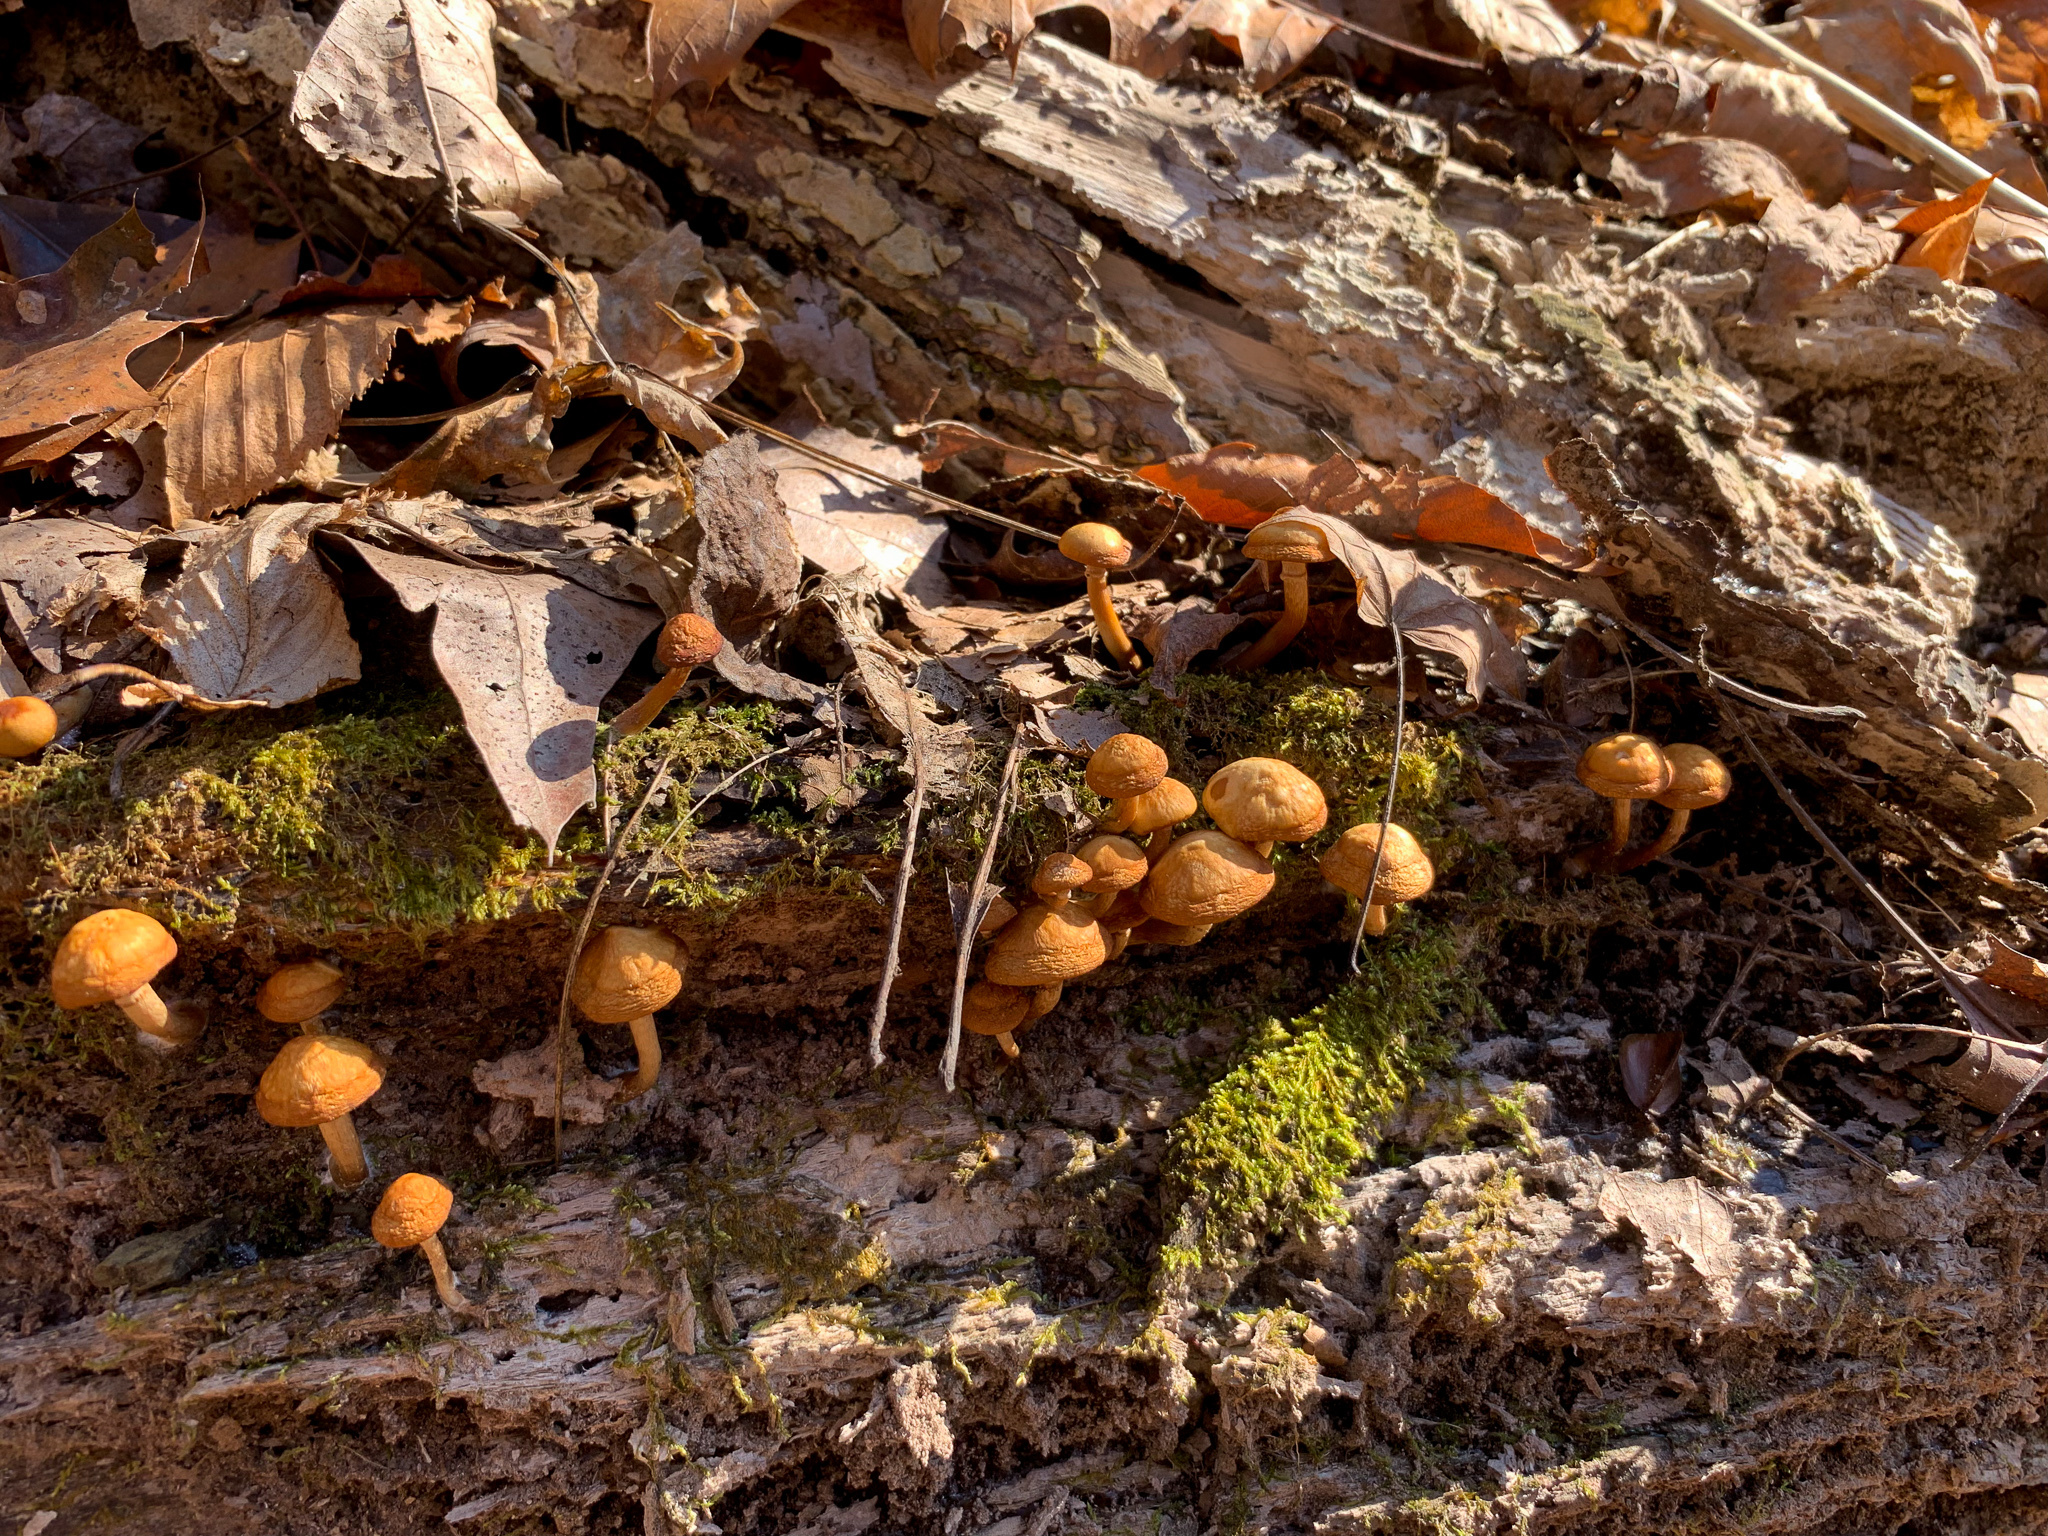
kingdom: Fungi
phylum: Basidiomycota
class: Agaricomycetes
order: Agaricales
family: Hymenogastraceae
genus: Galerina
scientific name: Galerina marginata
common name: Funeral bell
